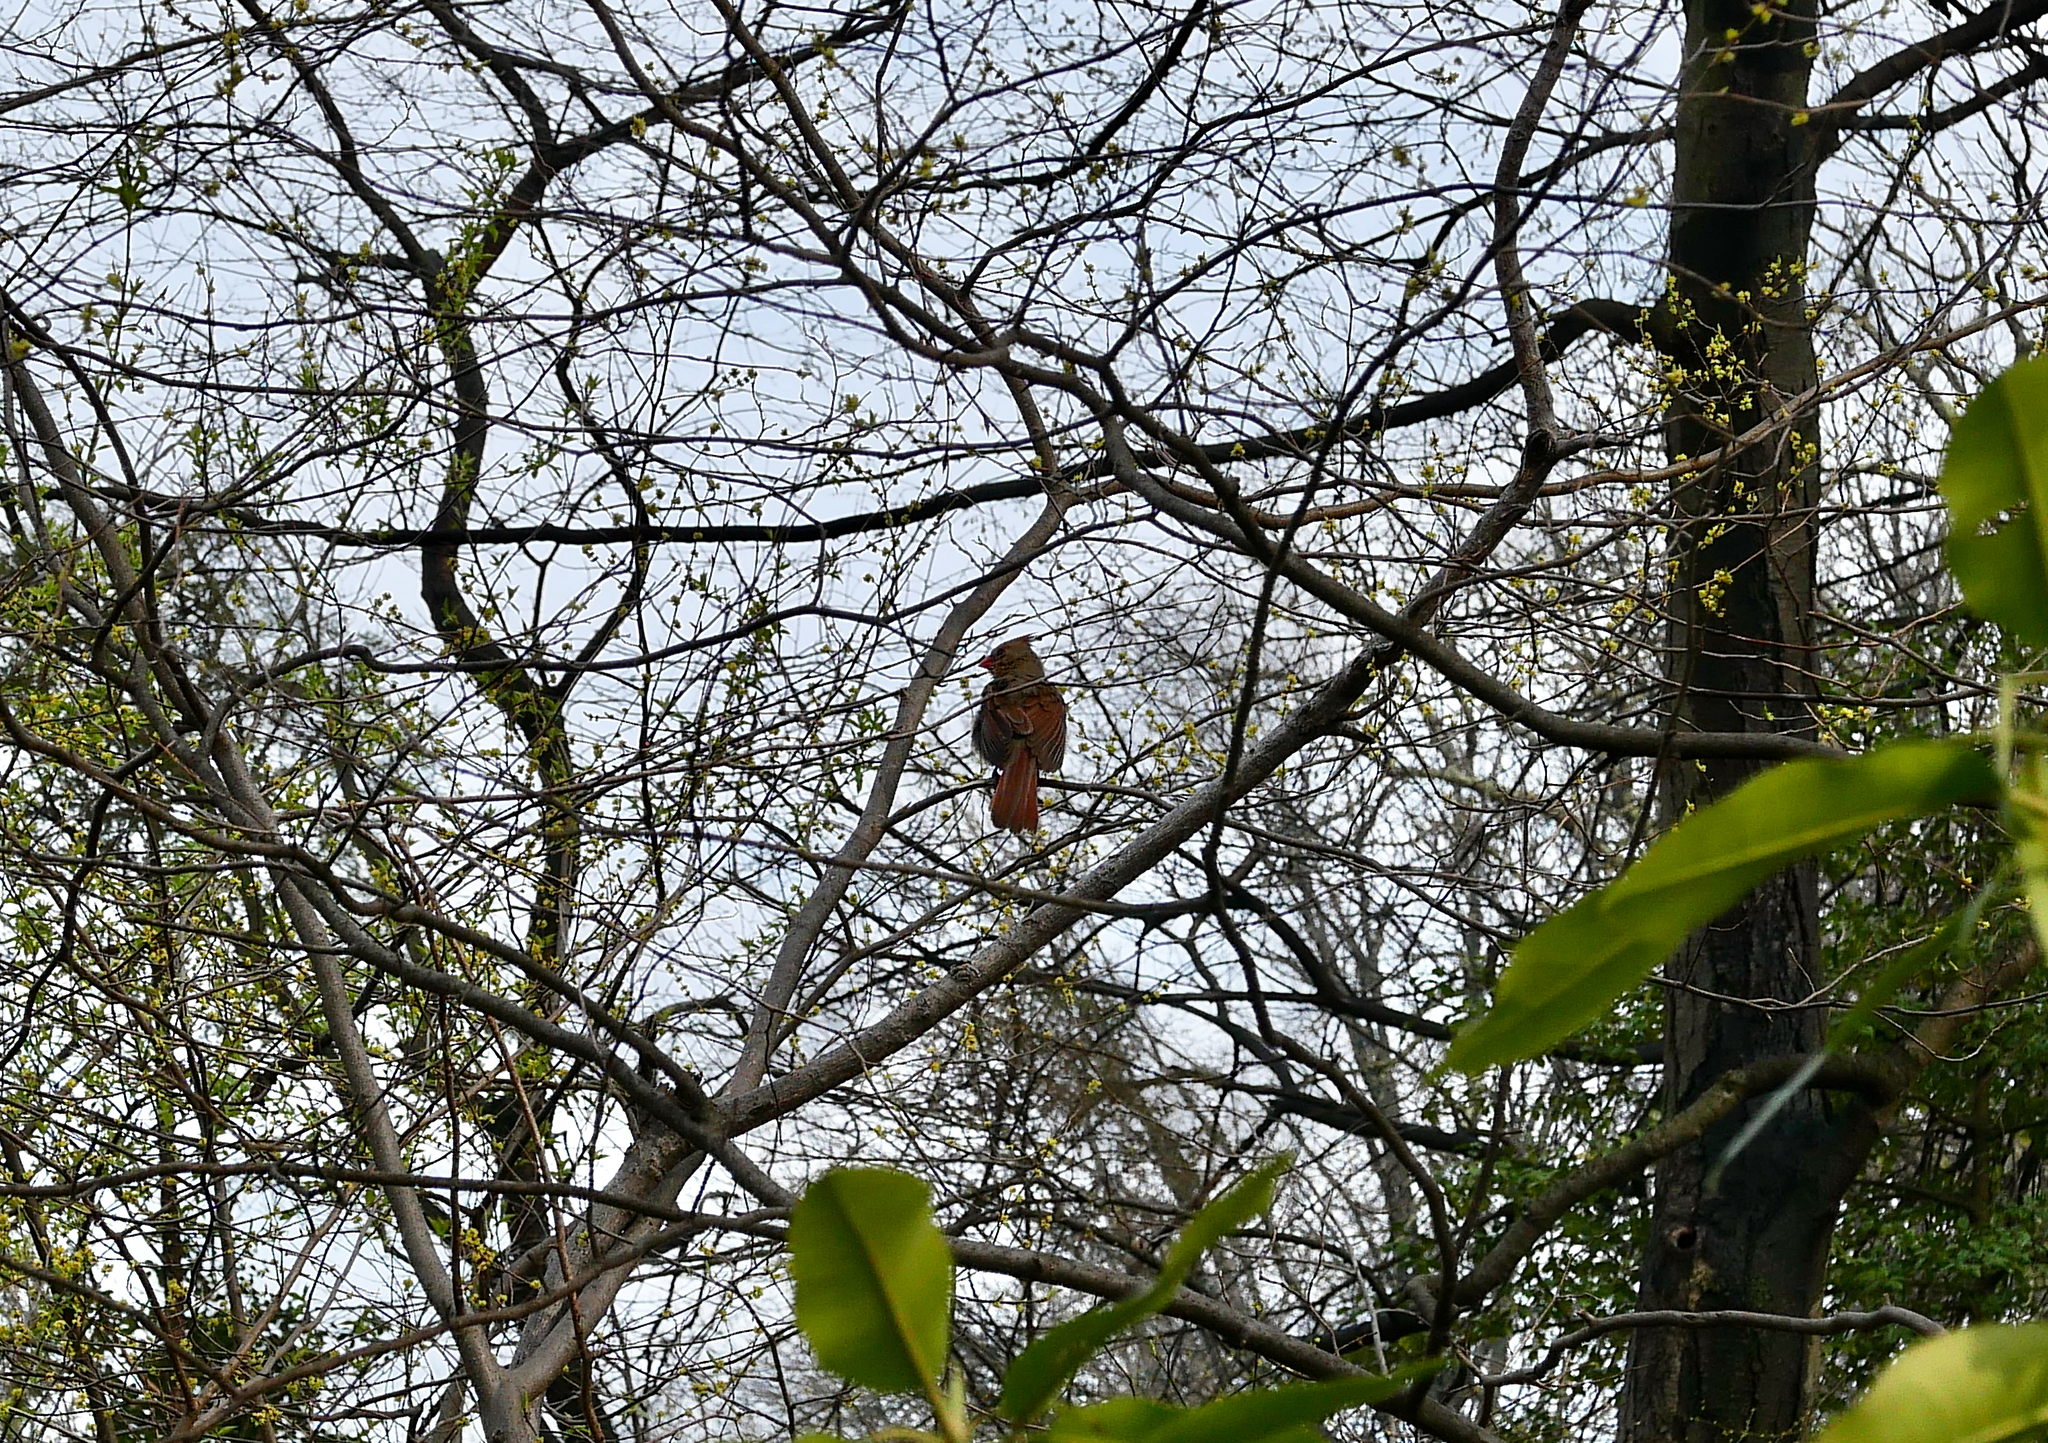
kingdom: Animalia
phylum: Chordata
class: Aves
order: Passeriformes
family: Cardinalidae
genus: Cardinalis
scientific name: Cardinalis cardinalis
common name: Northern cardinal
